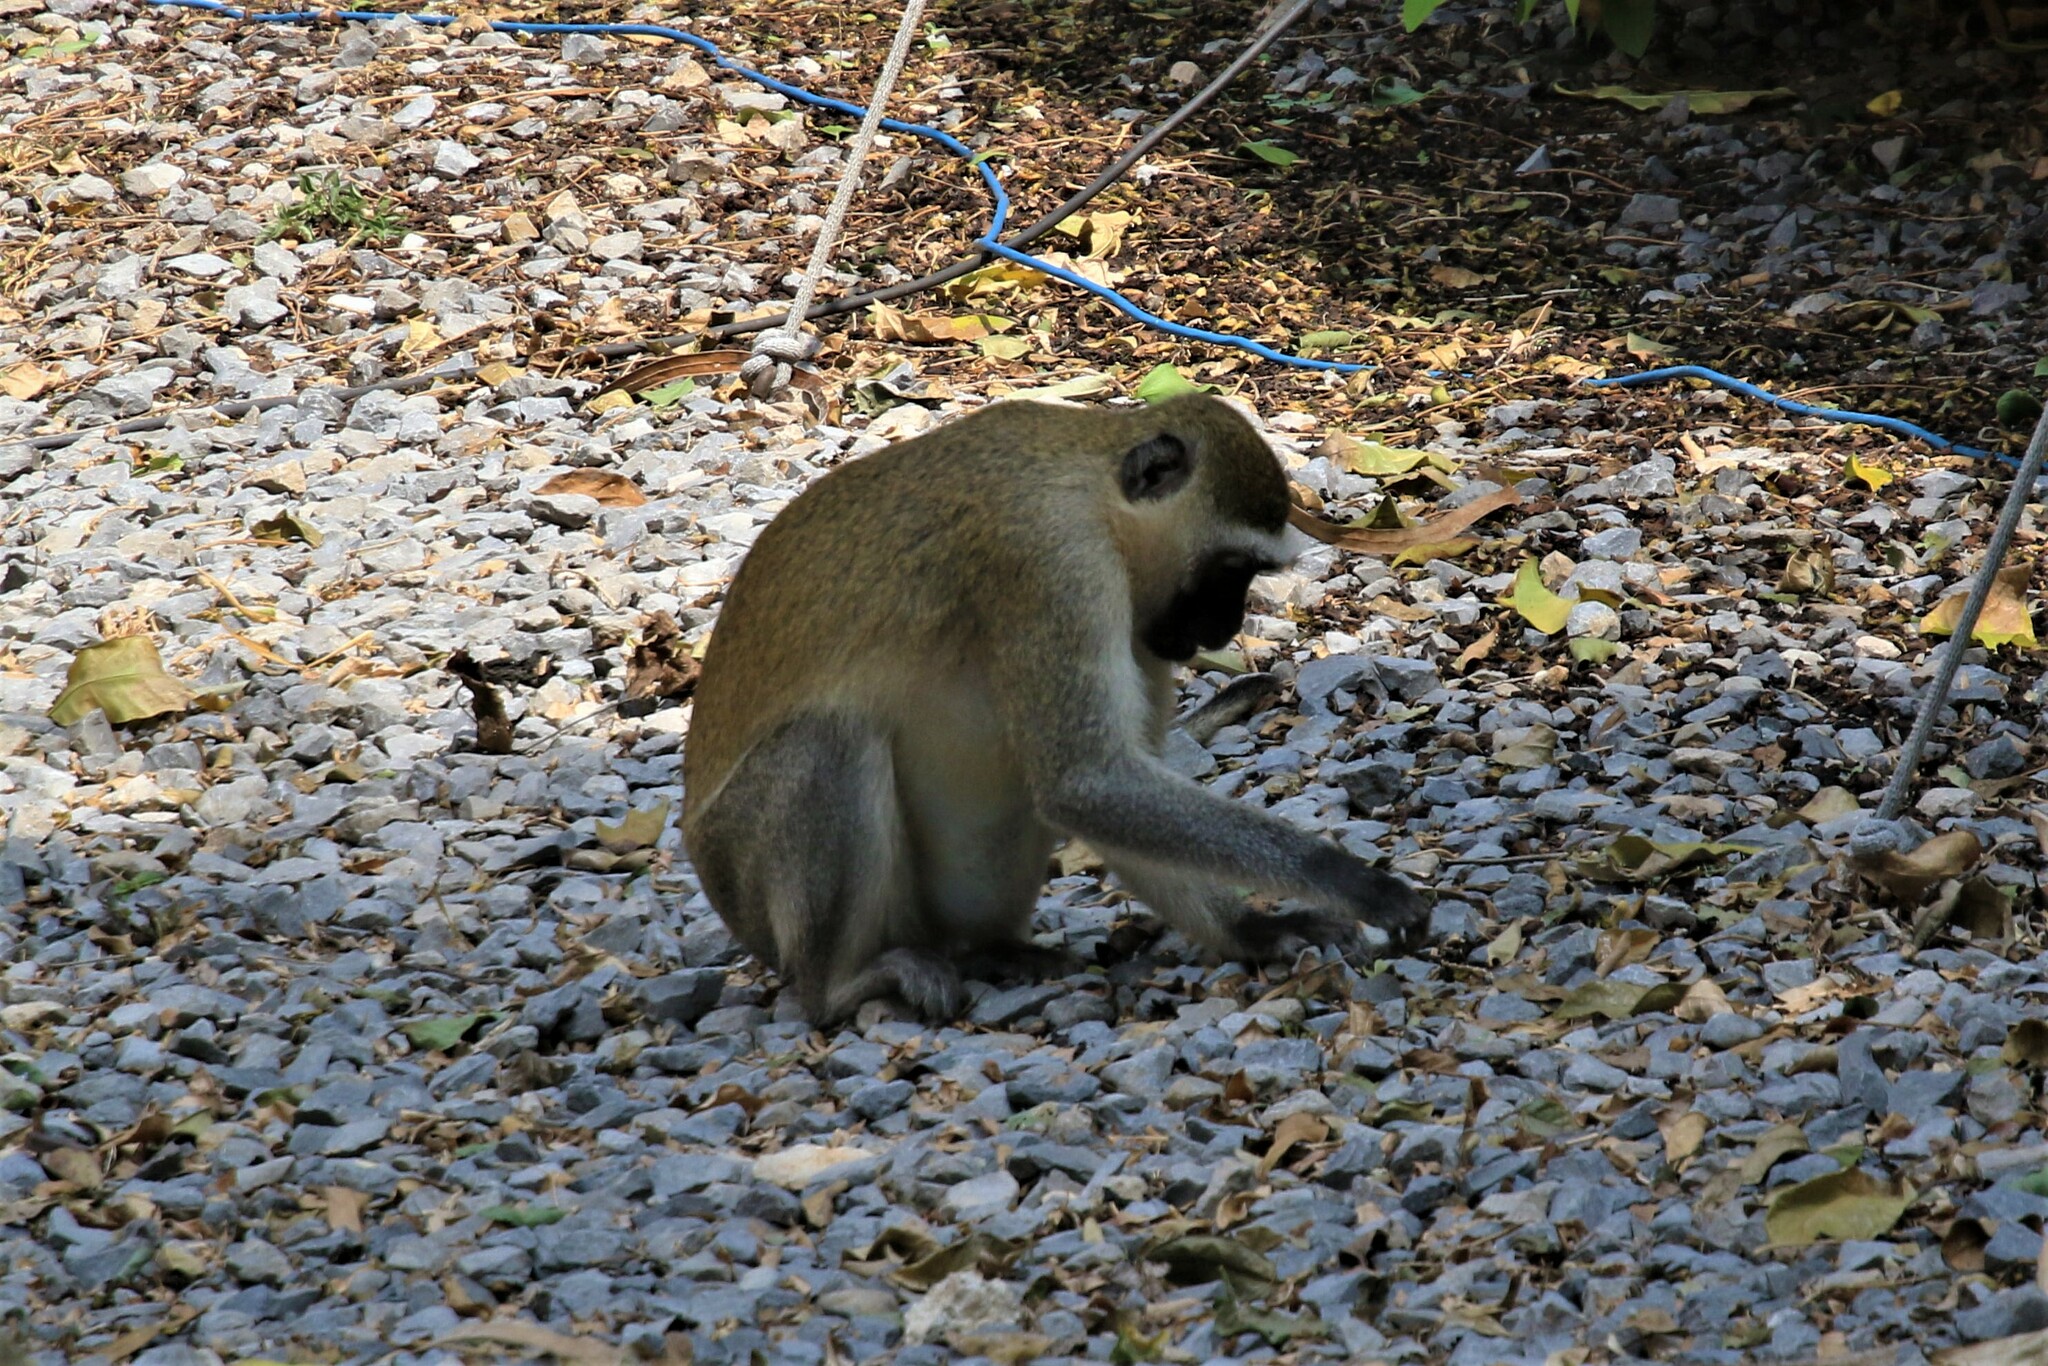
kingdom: Animalia
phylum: Chordata
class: Mammalia
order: Primates
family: Cercopithecidae
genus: Chlorocebus
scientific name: Chlorocebus pygerythrus
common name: Vervet monkey
